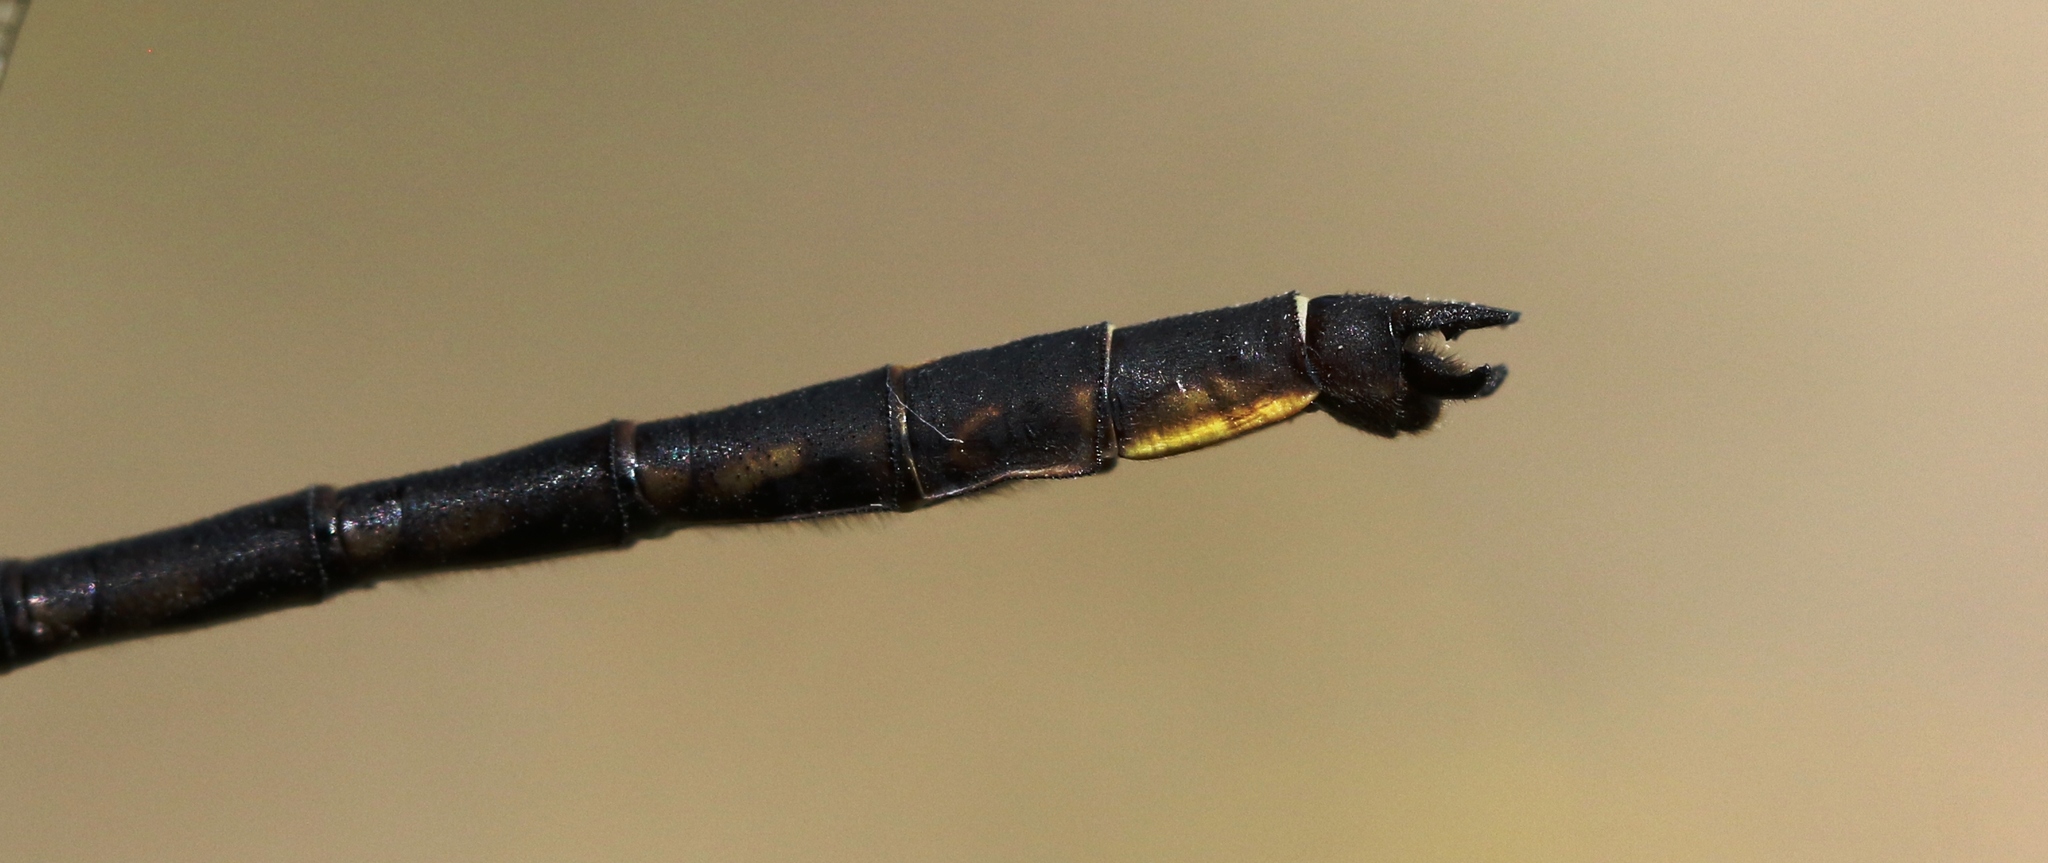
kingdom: Animalia
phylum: Arthropoda
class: Insecta
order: Odonata
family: Gomphidae
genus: Phanogomphus
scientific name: Phanogomphus spicatus
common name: Dusky clubtail
